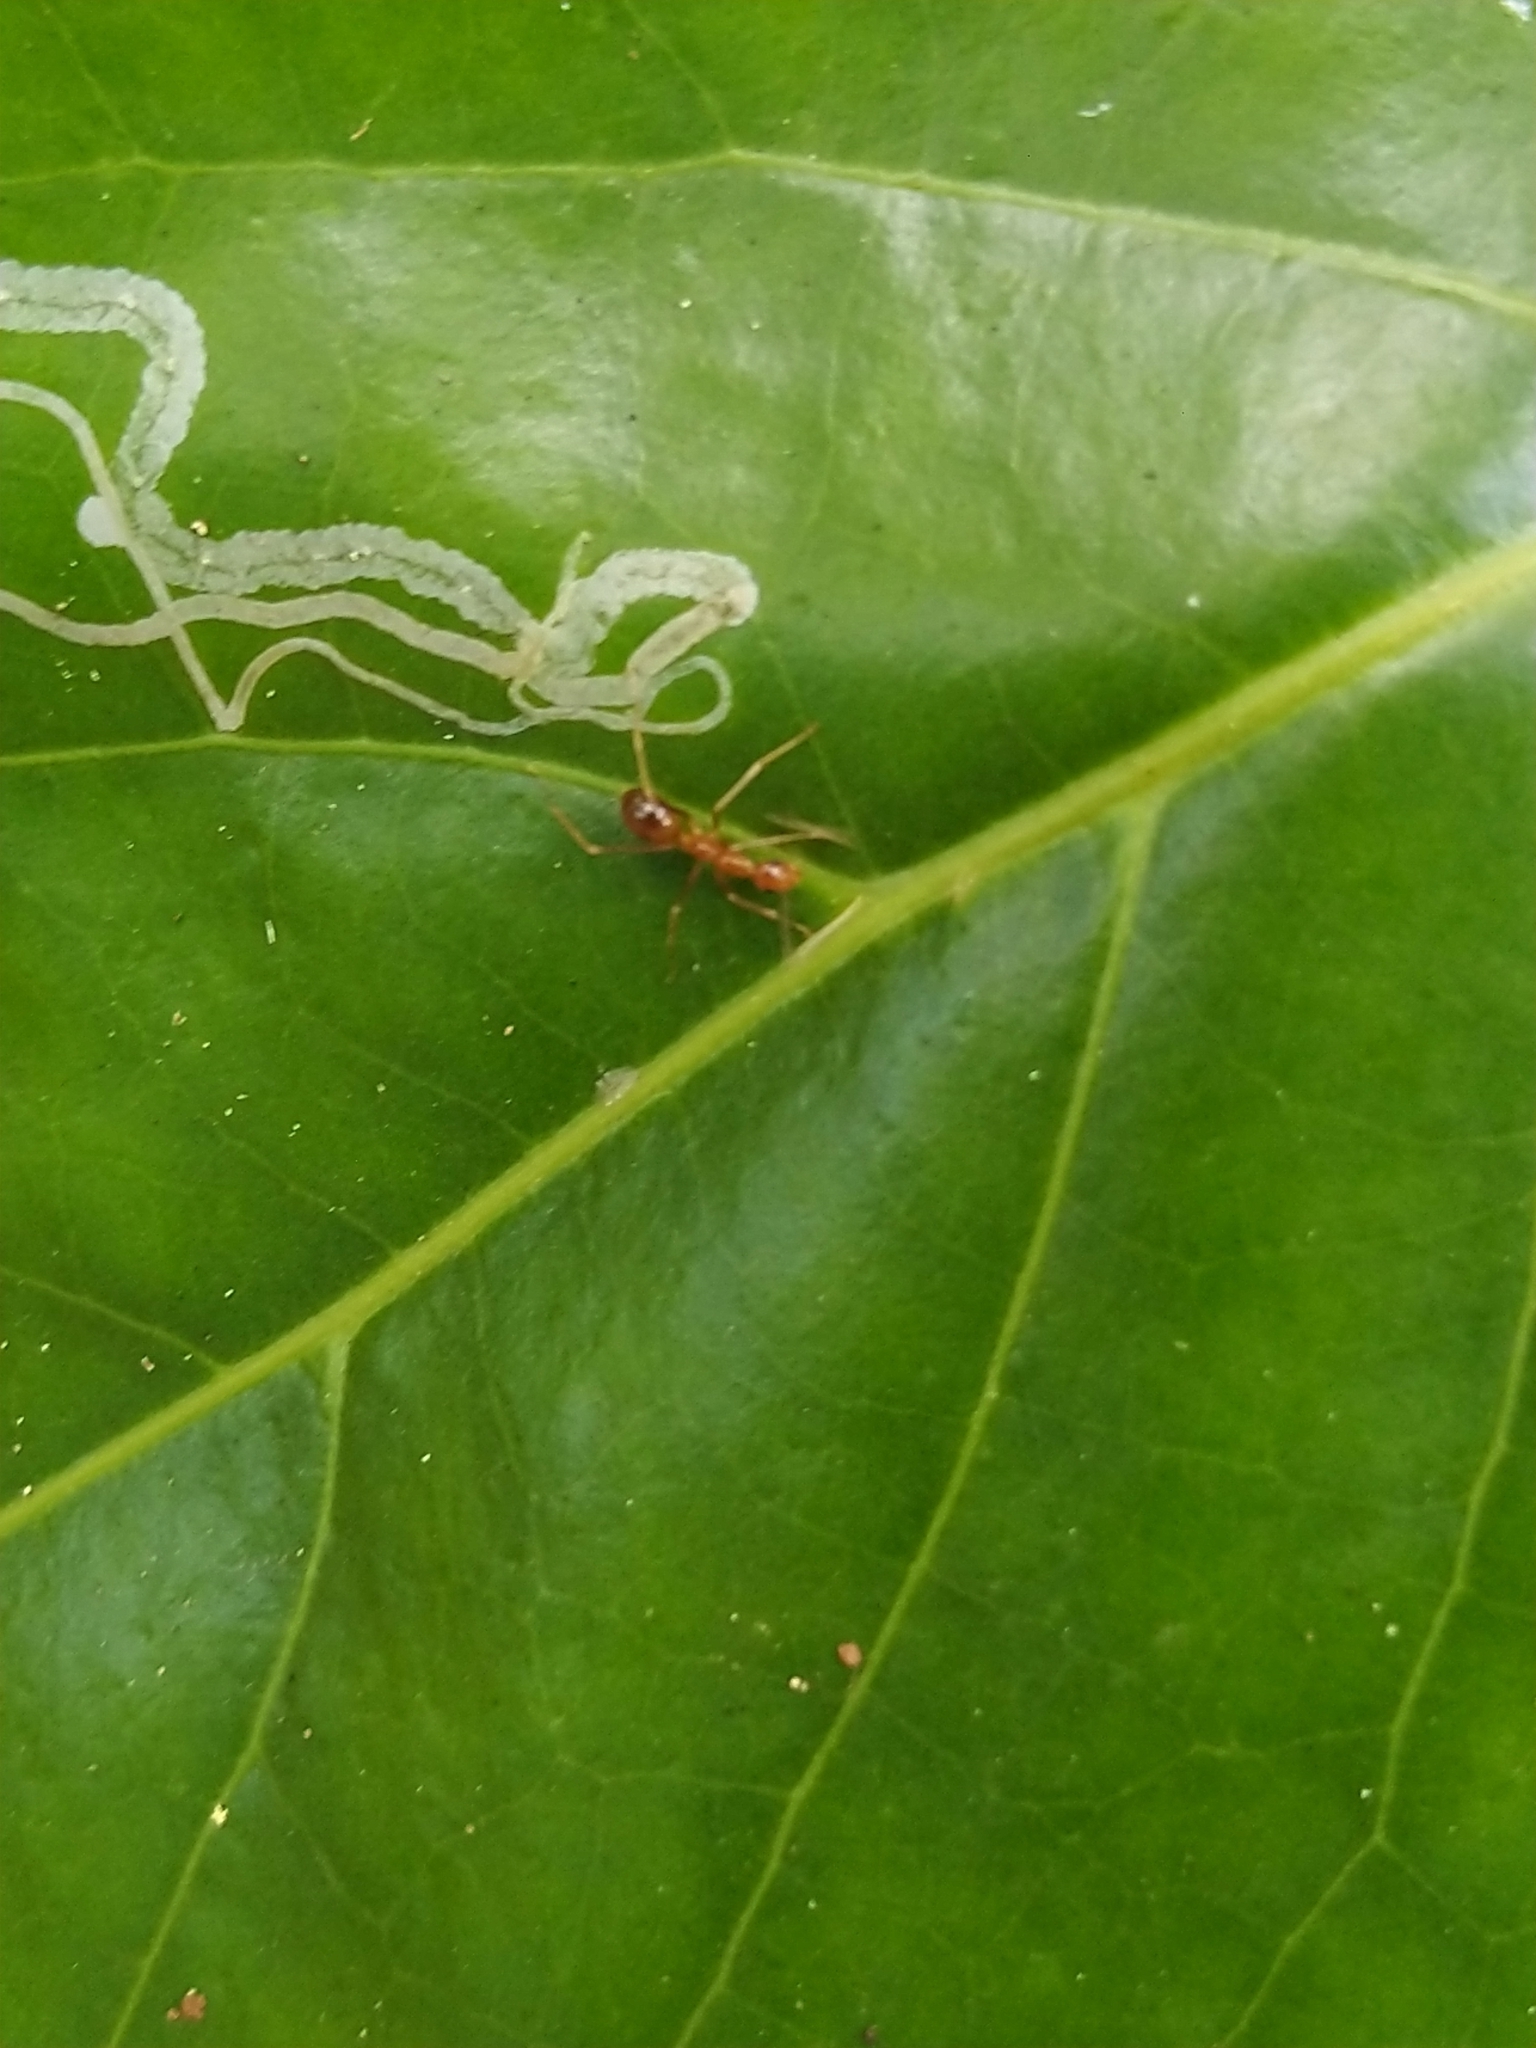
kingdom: Animalia
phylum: Arthropoda
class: Insecta
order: Hymenoptera
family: Formicidae
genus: Anoplolepis
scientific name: Anoplolepis gracilipes
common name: Ant
